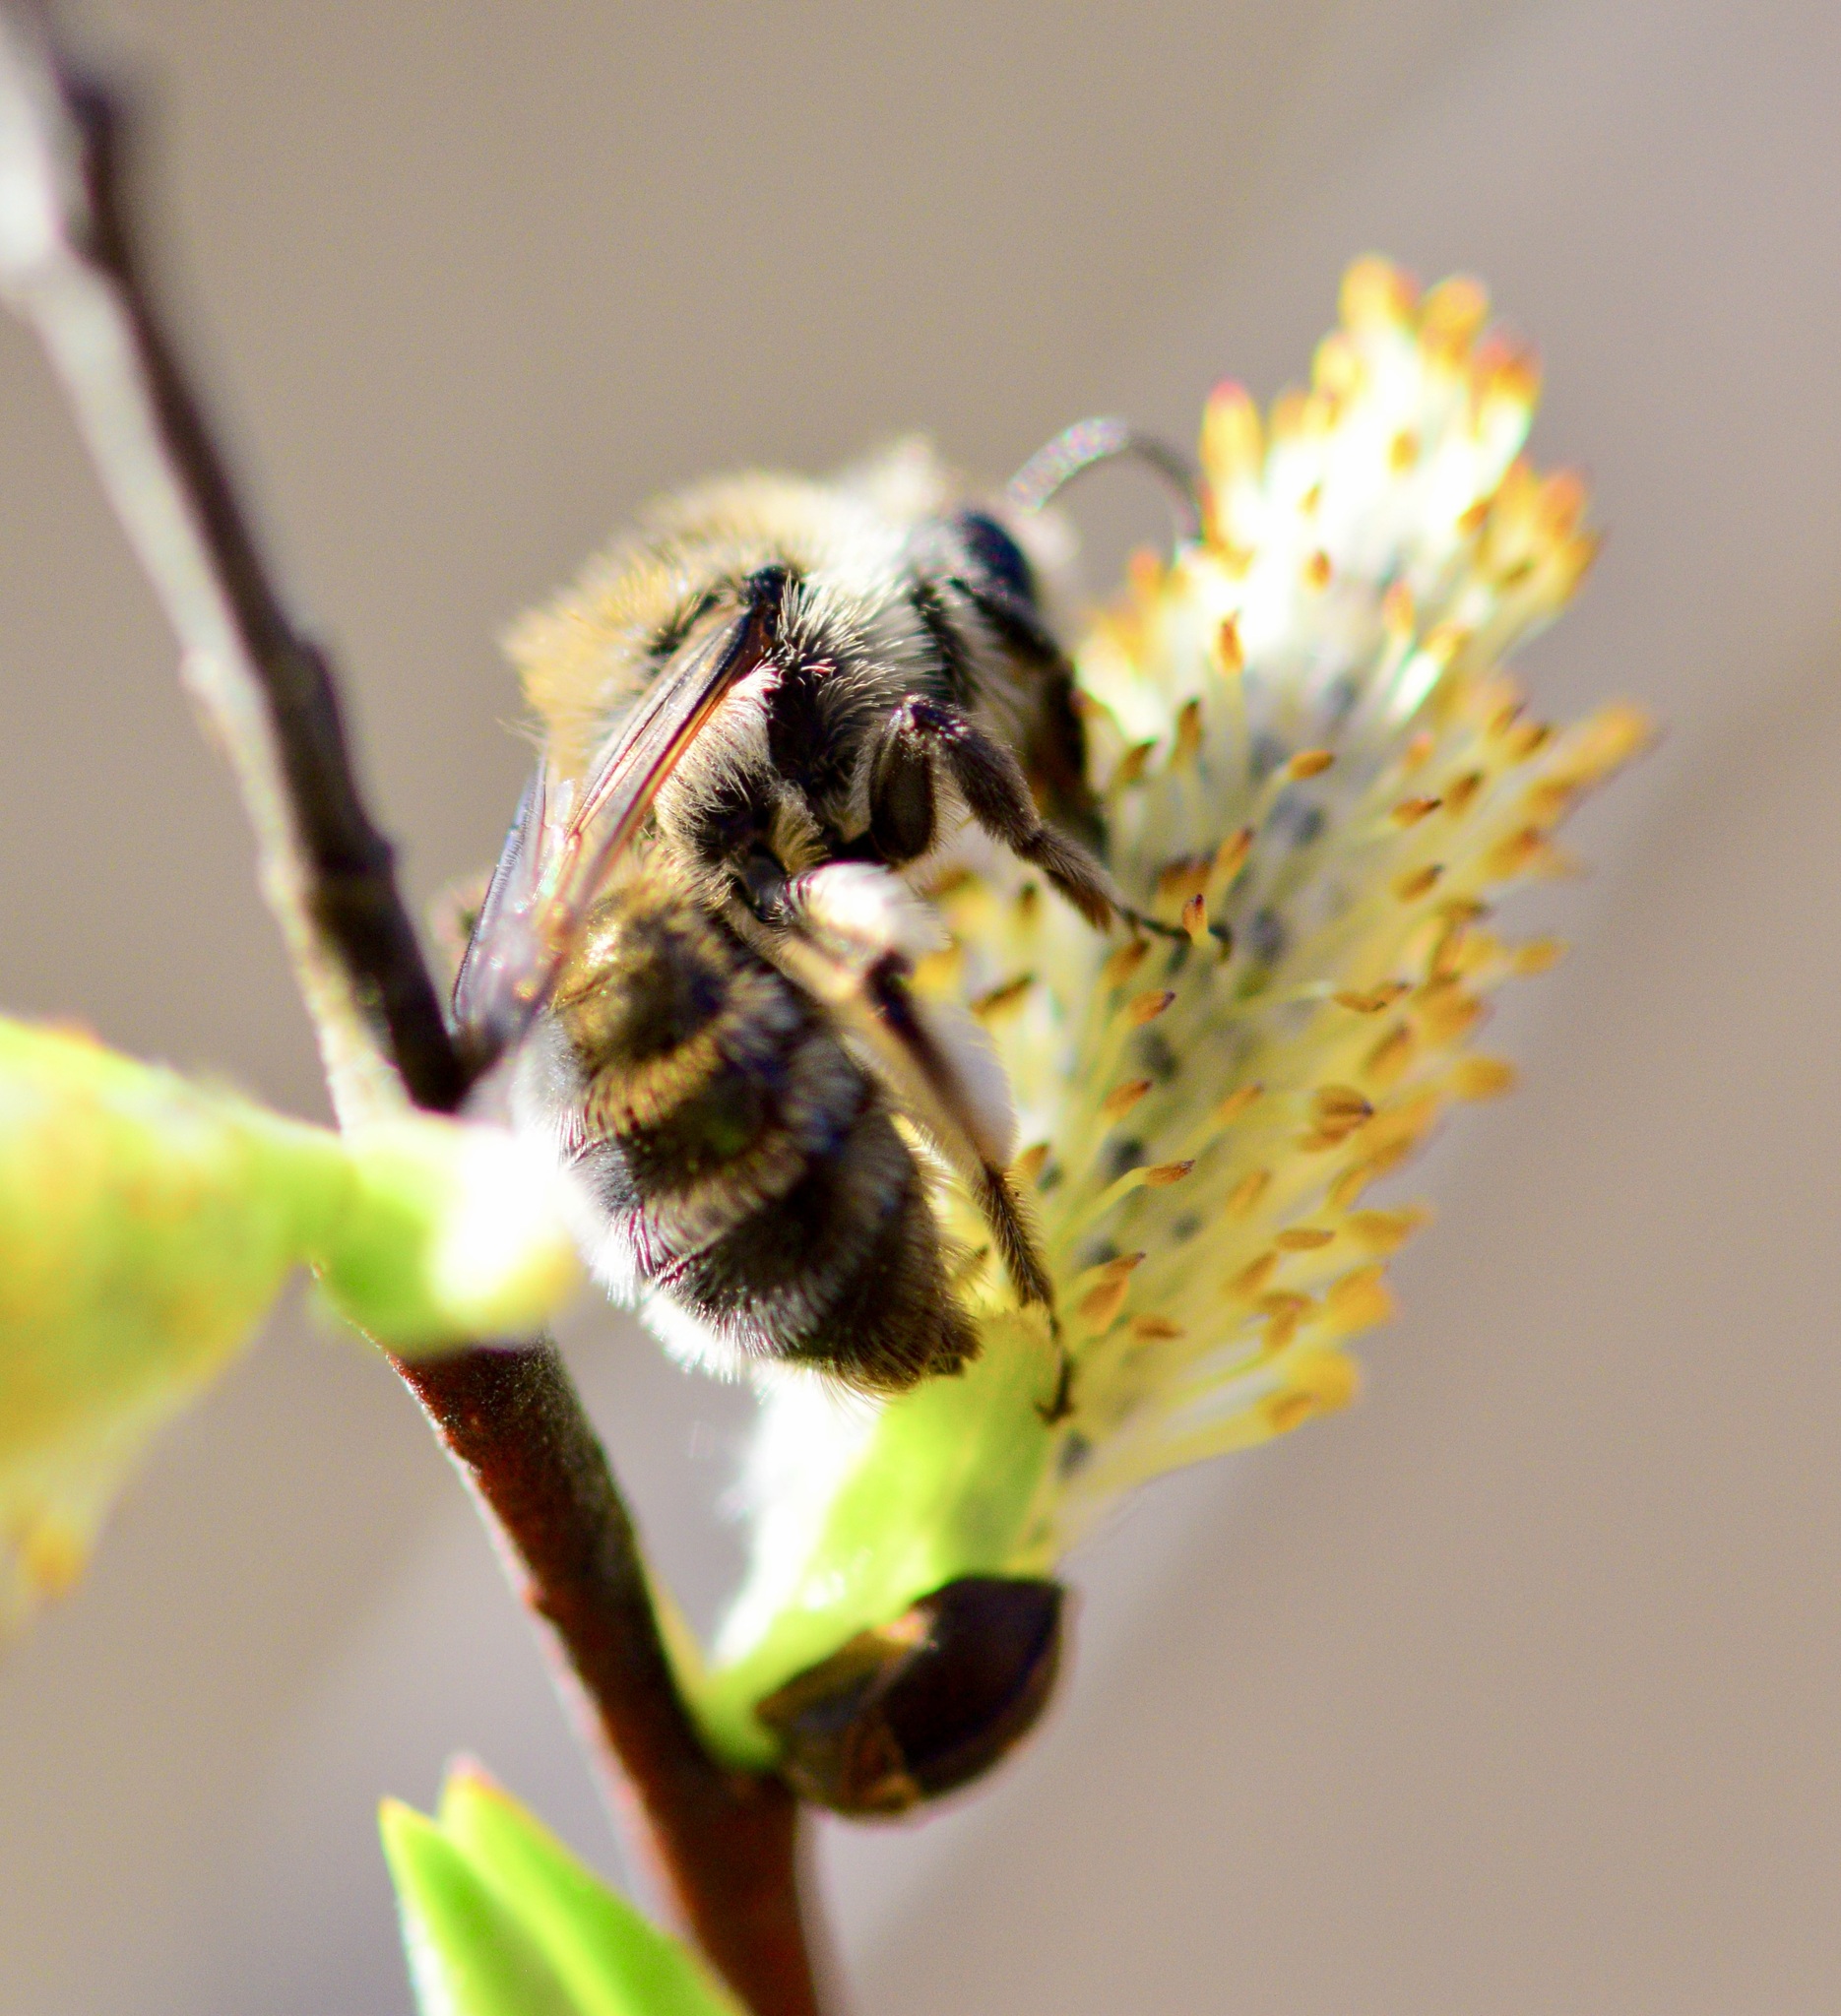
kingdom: Animalia
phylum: Arthropoda
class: Insecta
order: Hymenoptera
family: Andrenidae
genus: Andrena
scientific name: Andrena frigida
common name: Frigid mining bee
